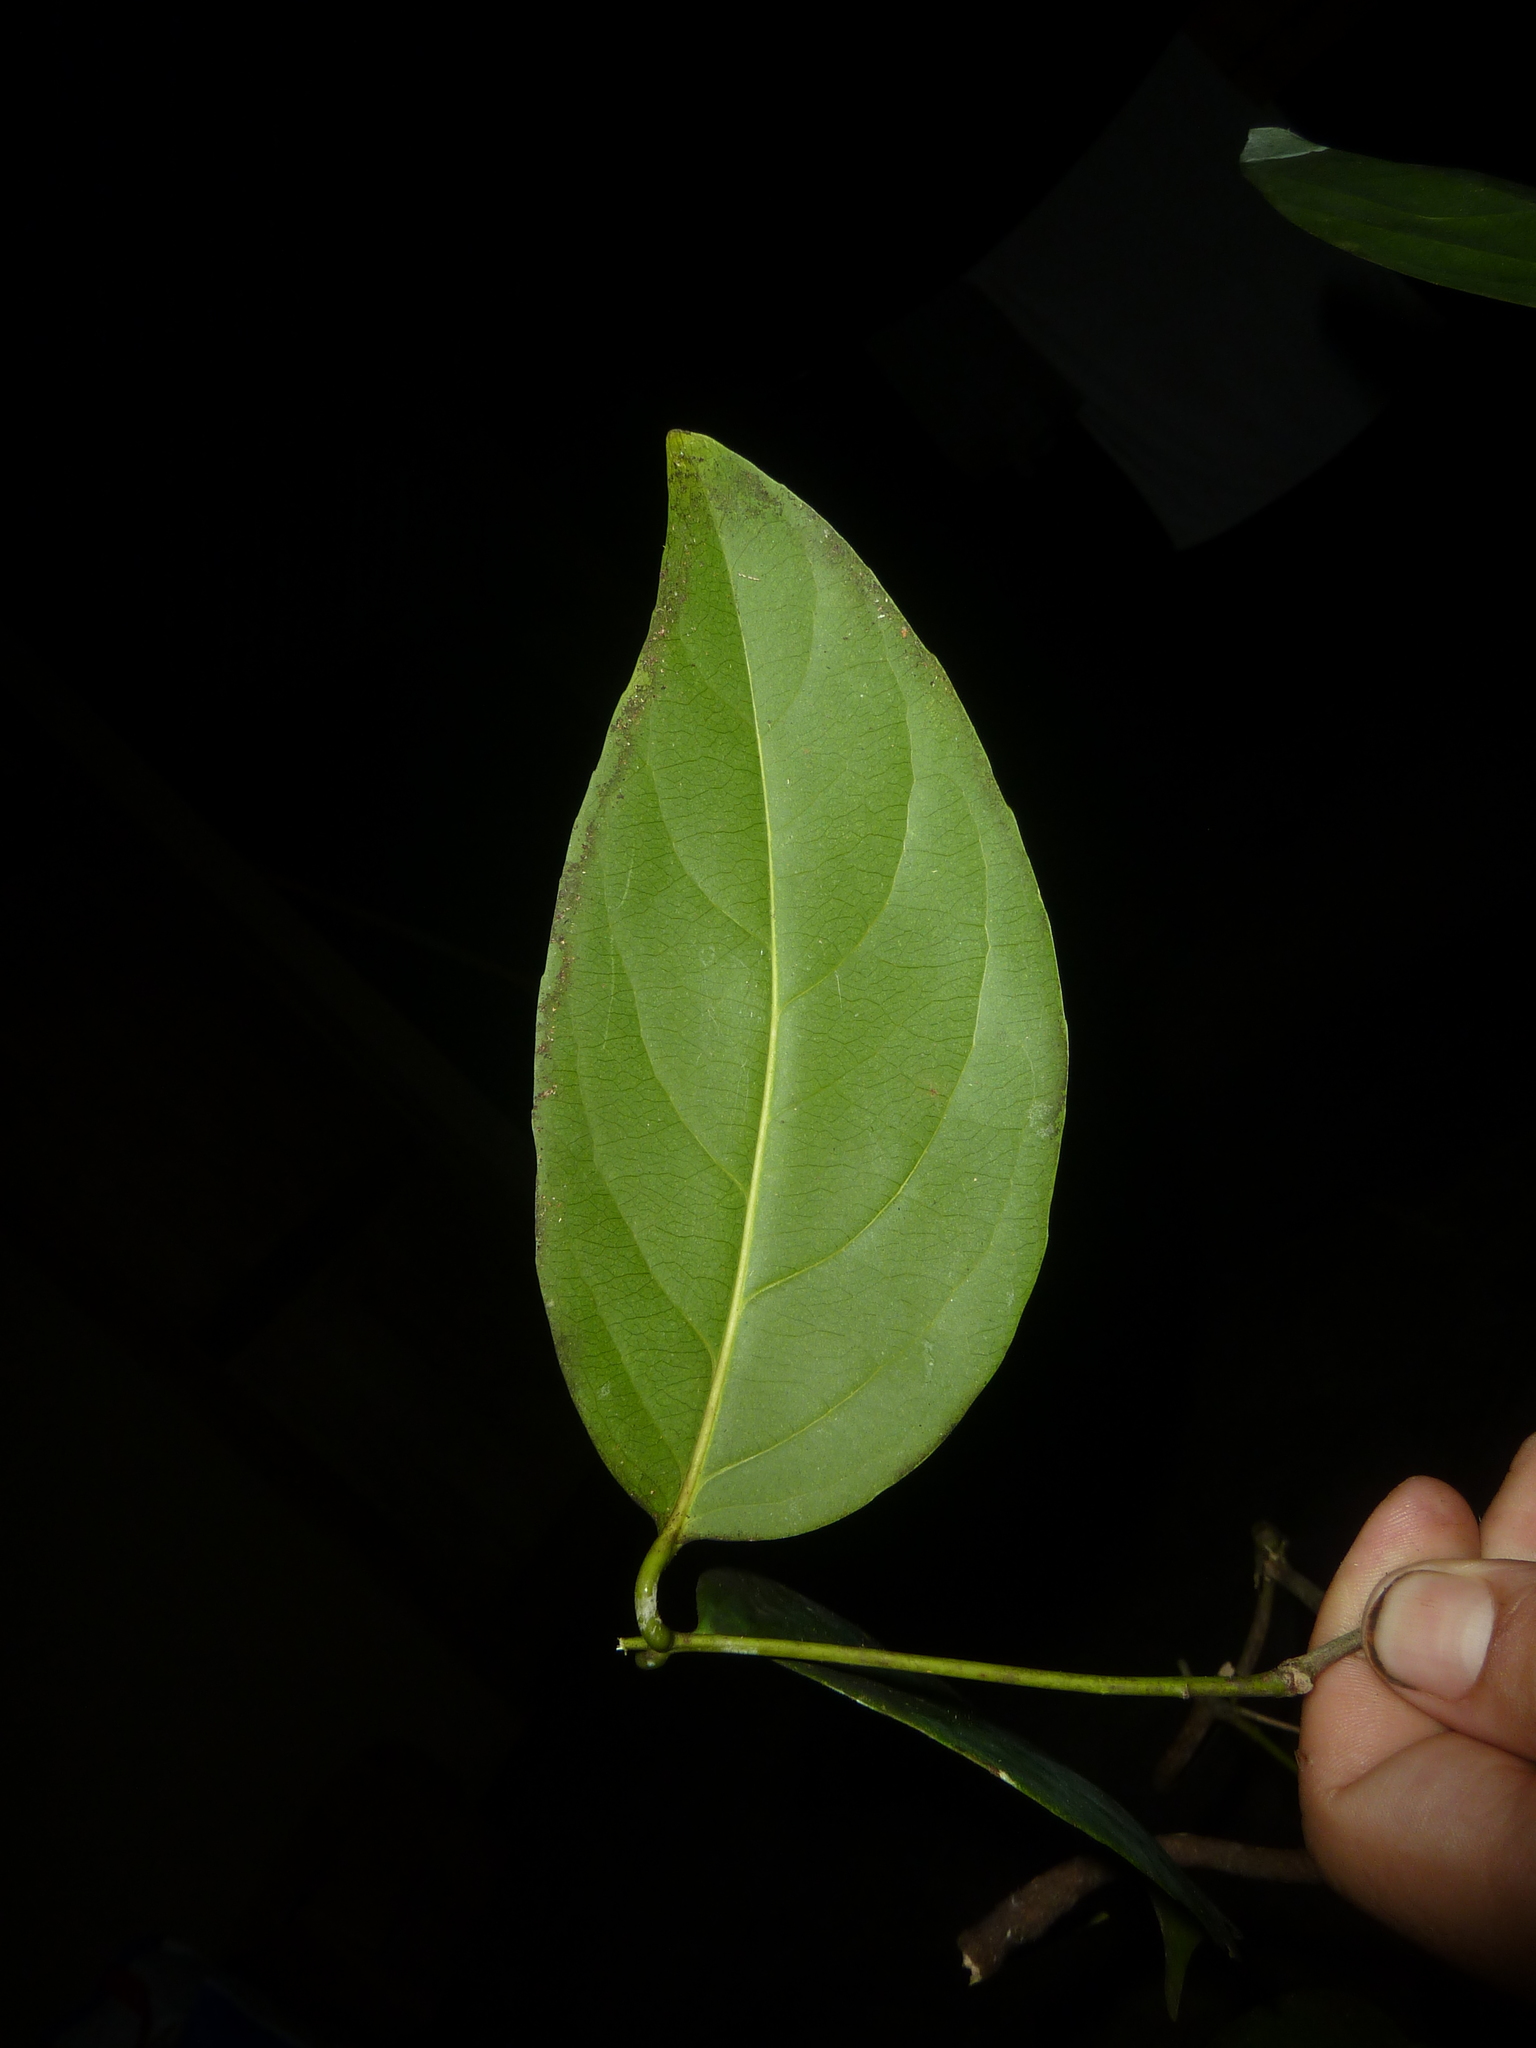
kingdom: Plantae
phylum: Tracheophyta
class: Magnoliopsida
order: Celastrales
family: Celastraceae
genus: Cuervea
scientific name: Cuervea kappleriana
